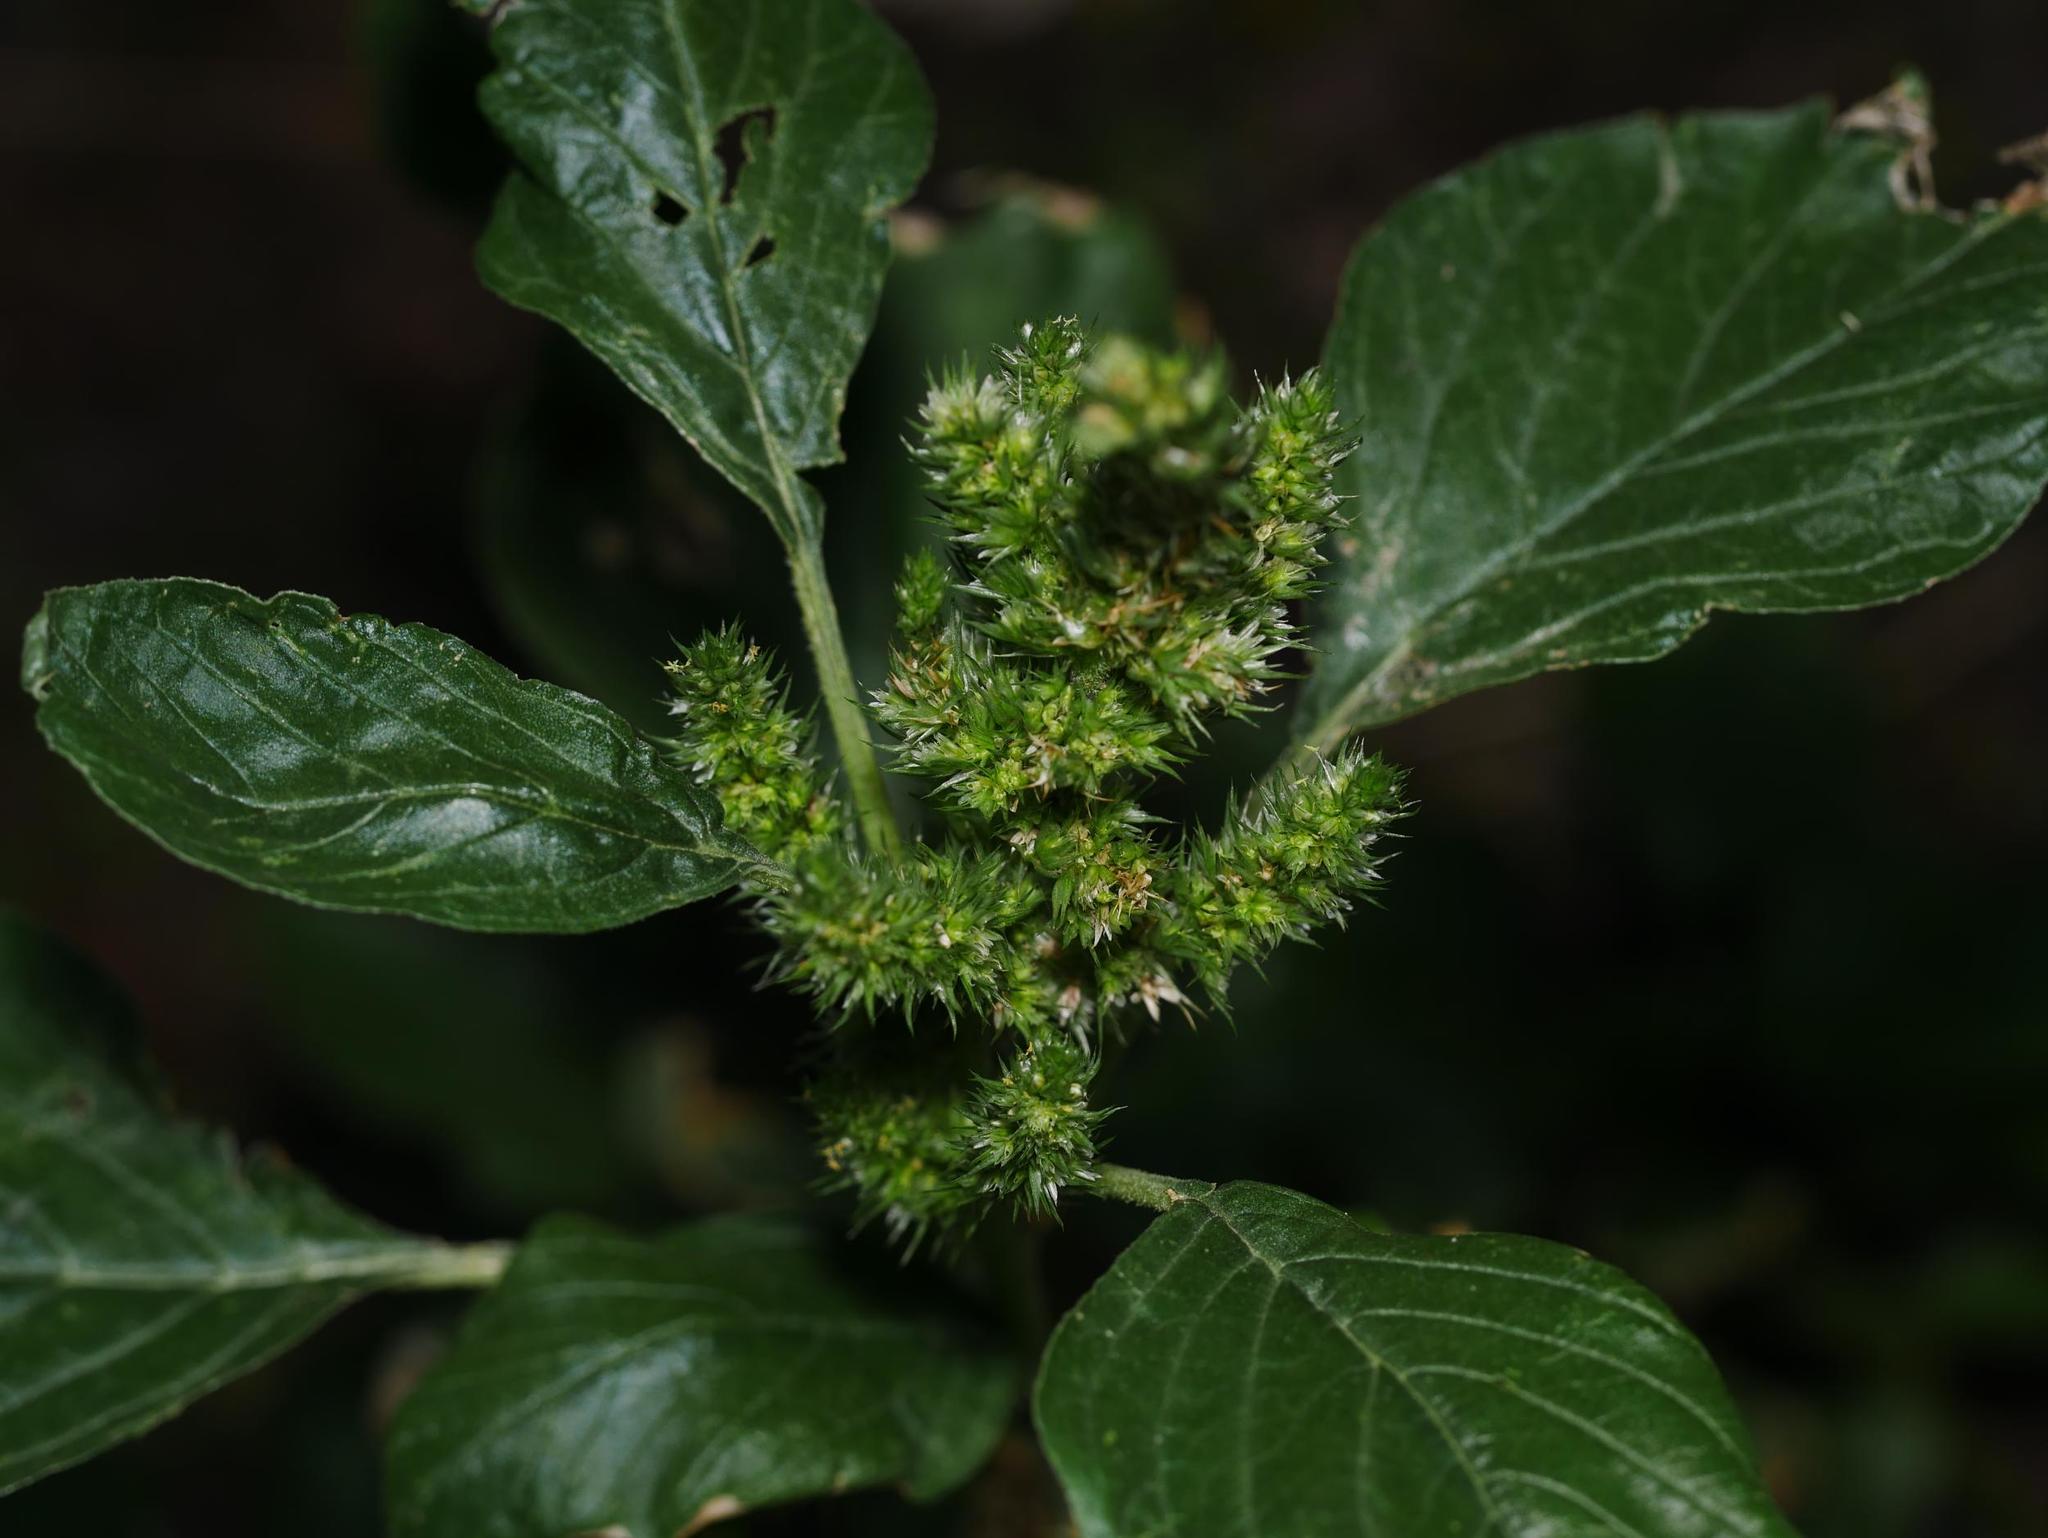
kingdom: Plantae
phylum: Tracheophyta
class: Magnoliopsida
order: Caryophyllales
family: Amaranthaceae
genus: Amaranthus
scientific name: Amaranthus retroflexus
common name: Redroot amaranth
